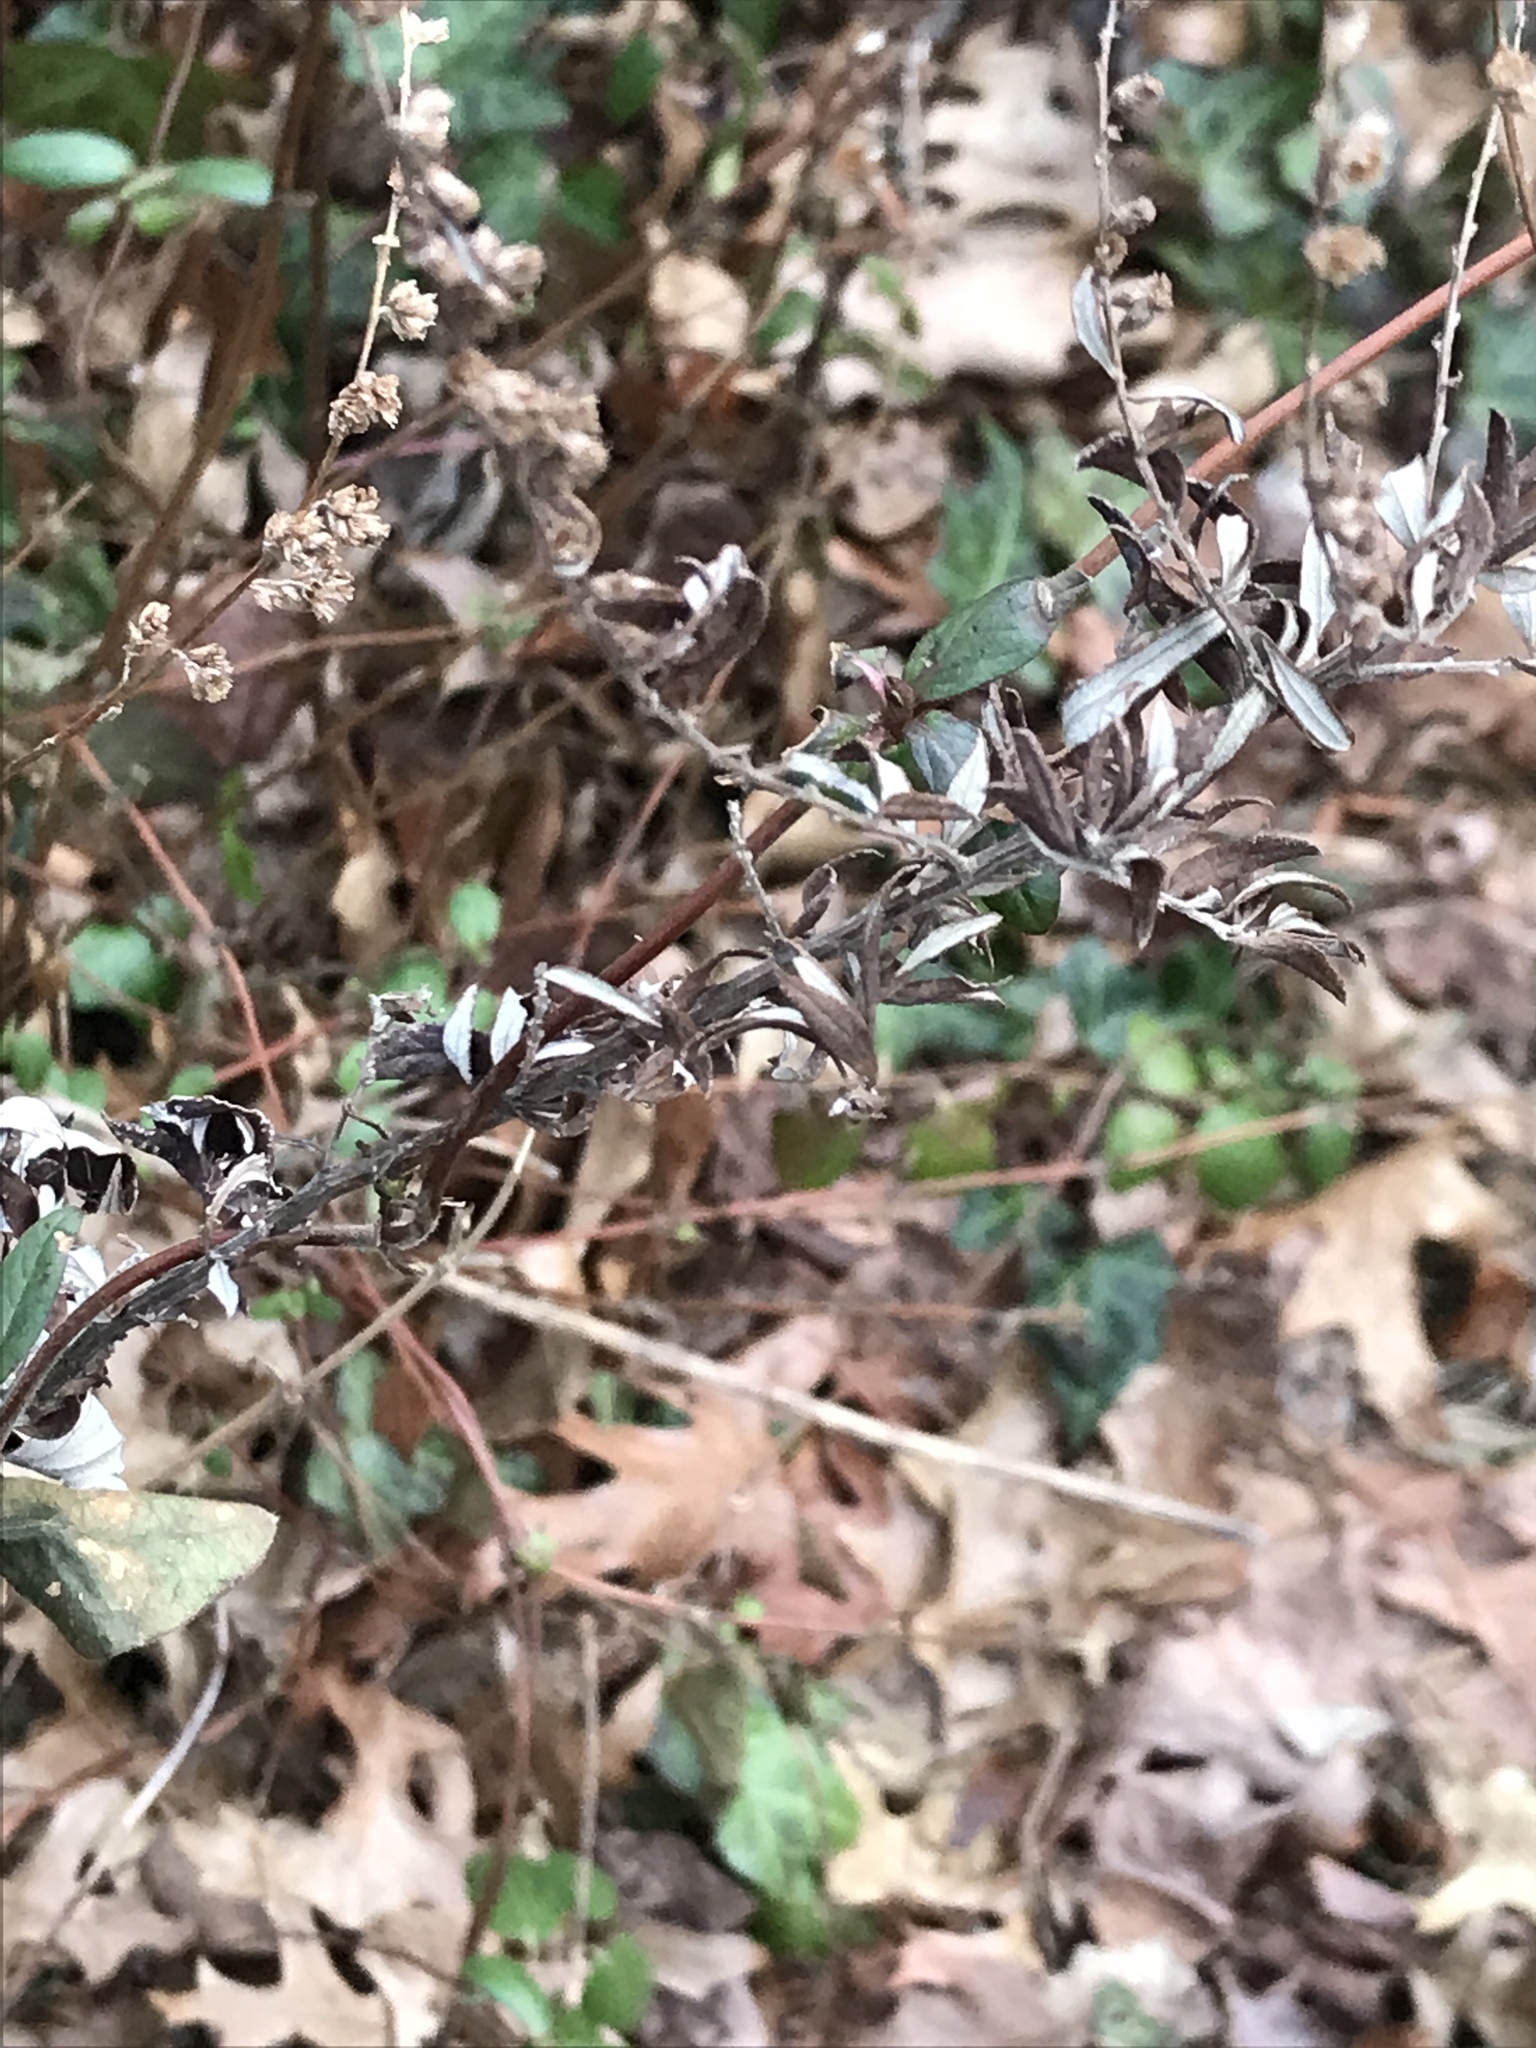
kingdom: Plantae
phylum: Tracheophyta
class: Magnoliopsida
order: Asterales
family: Asteraceae
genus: Artemisia
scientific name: Artemisia vulgaris
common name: Mugwort
